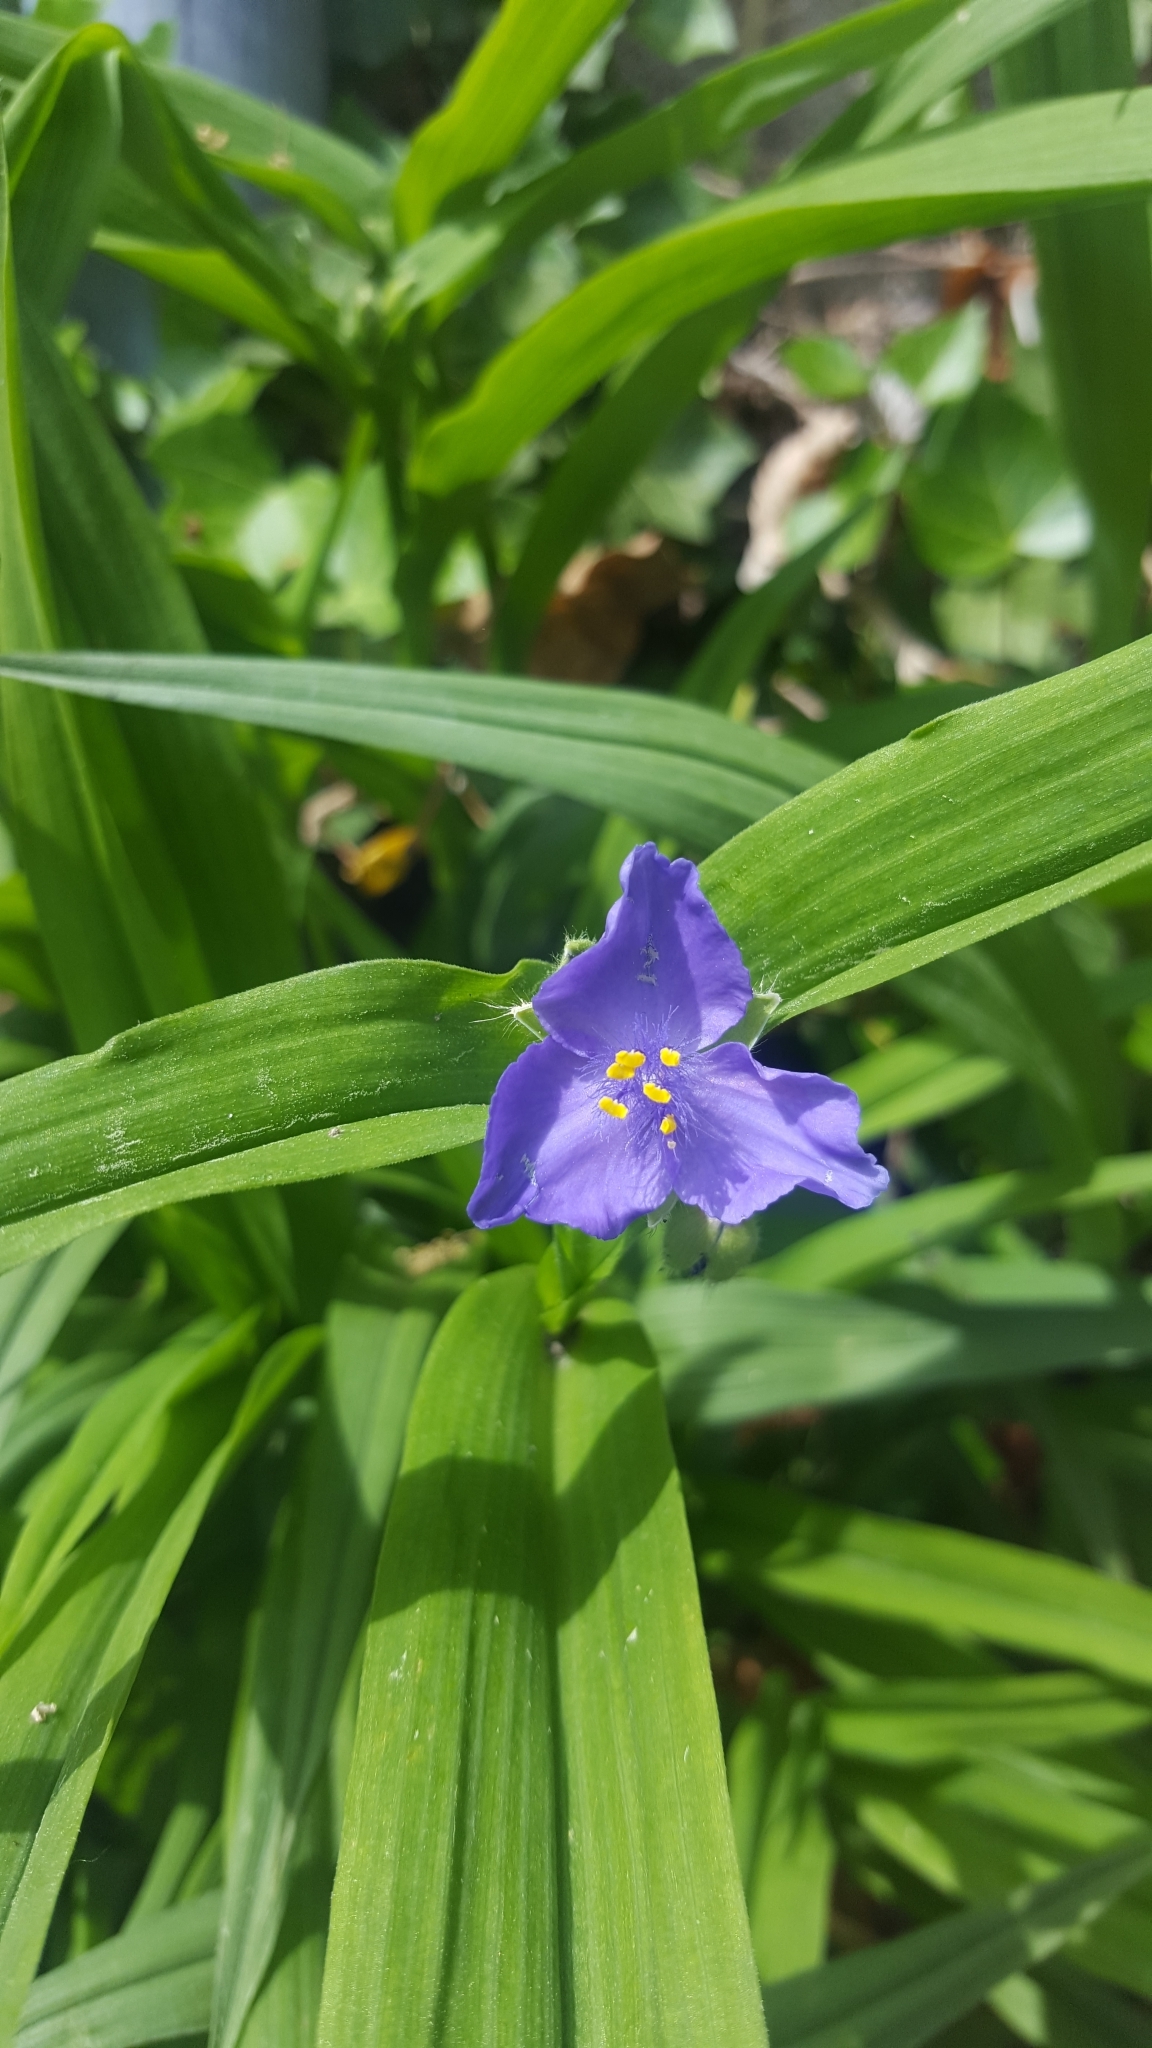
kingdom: Plantae
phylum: Tracheophyta
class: Liliopsida
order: Commelinales
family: Commelinaceae
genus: Tradescantia
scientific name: Tradescantia virginiana
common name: Spiderwort
